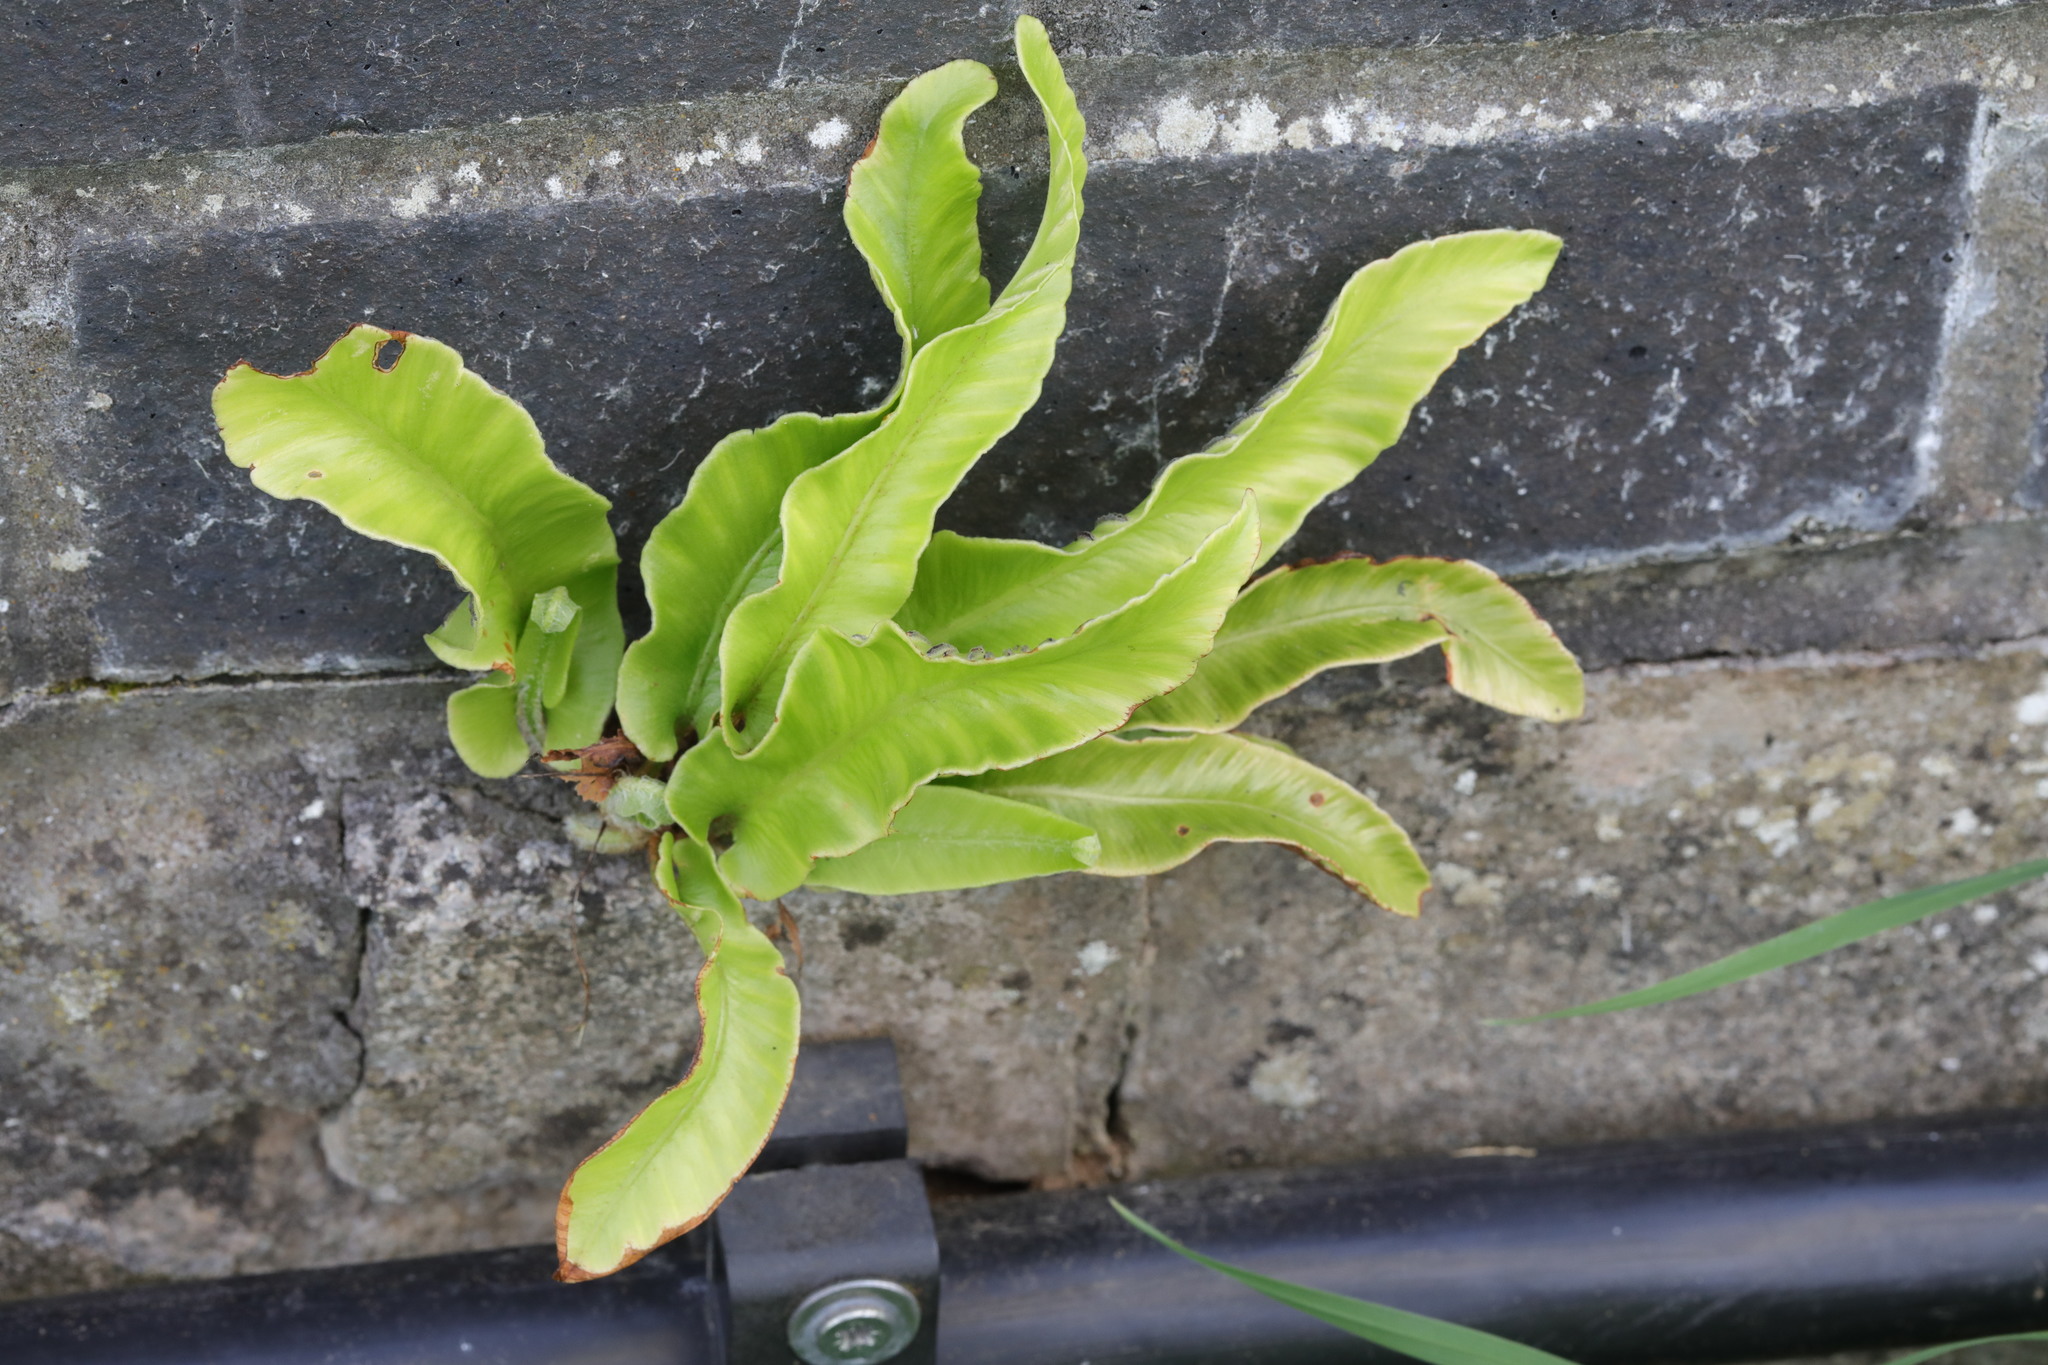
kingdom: Plantae
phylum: Tracheophyta
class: Polypodiopsida
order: Polypodiales
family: Aspleniaceae
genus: Asplenium
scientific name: Asplenium scolopendrium
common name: Hart's-tongue fern
